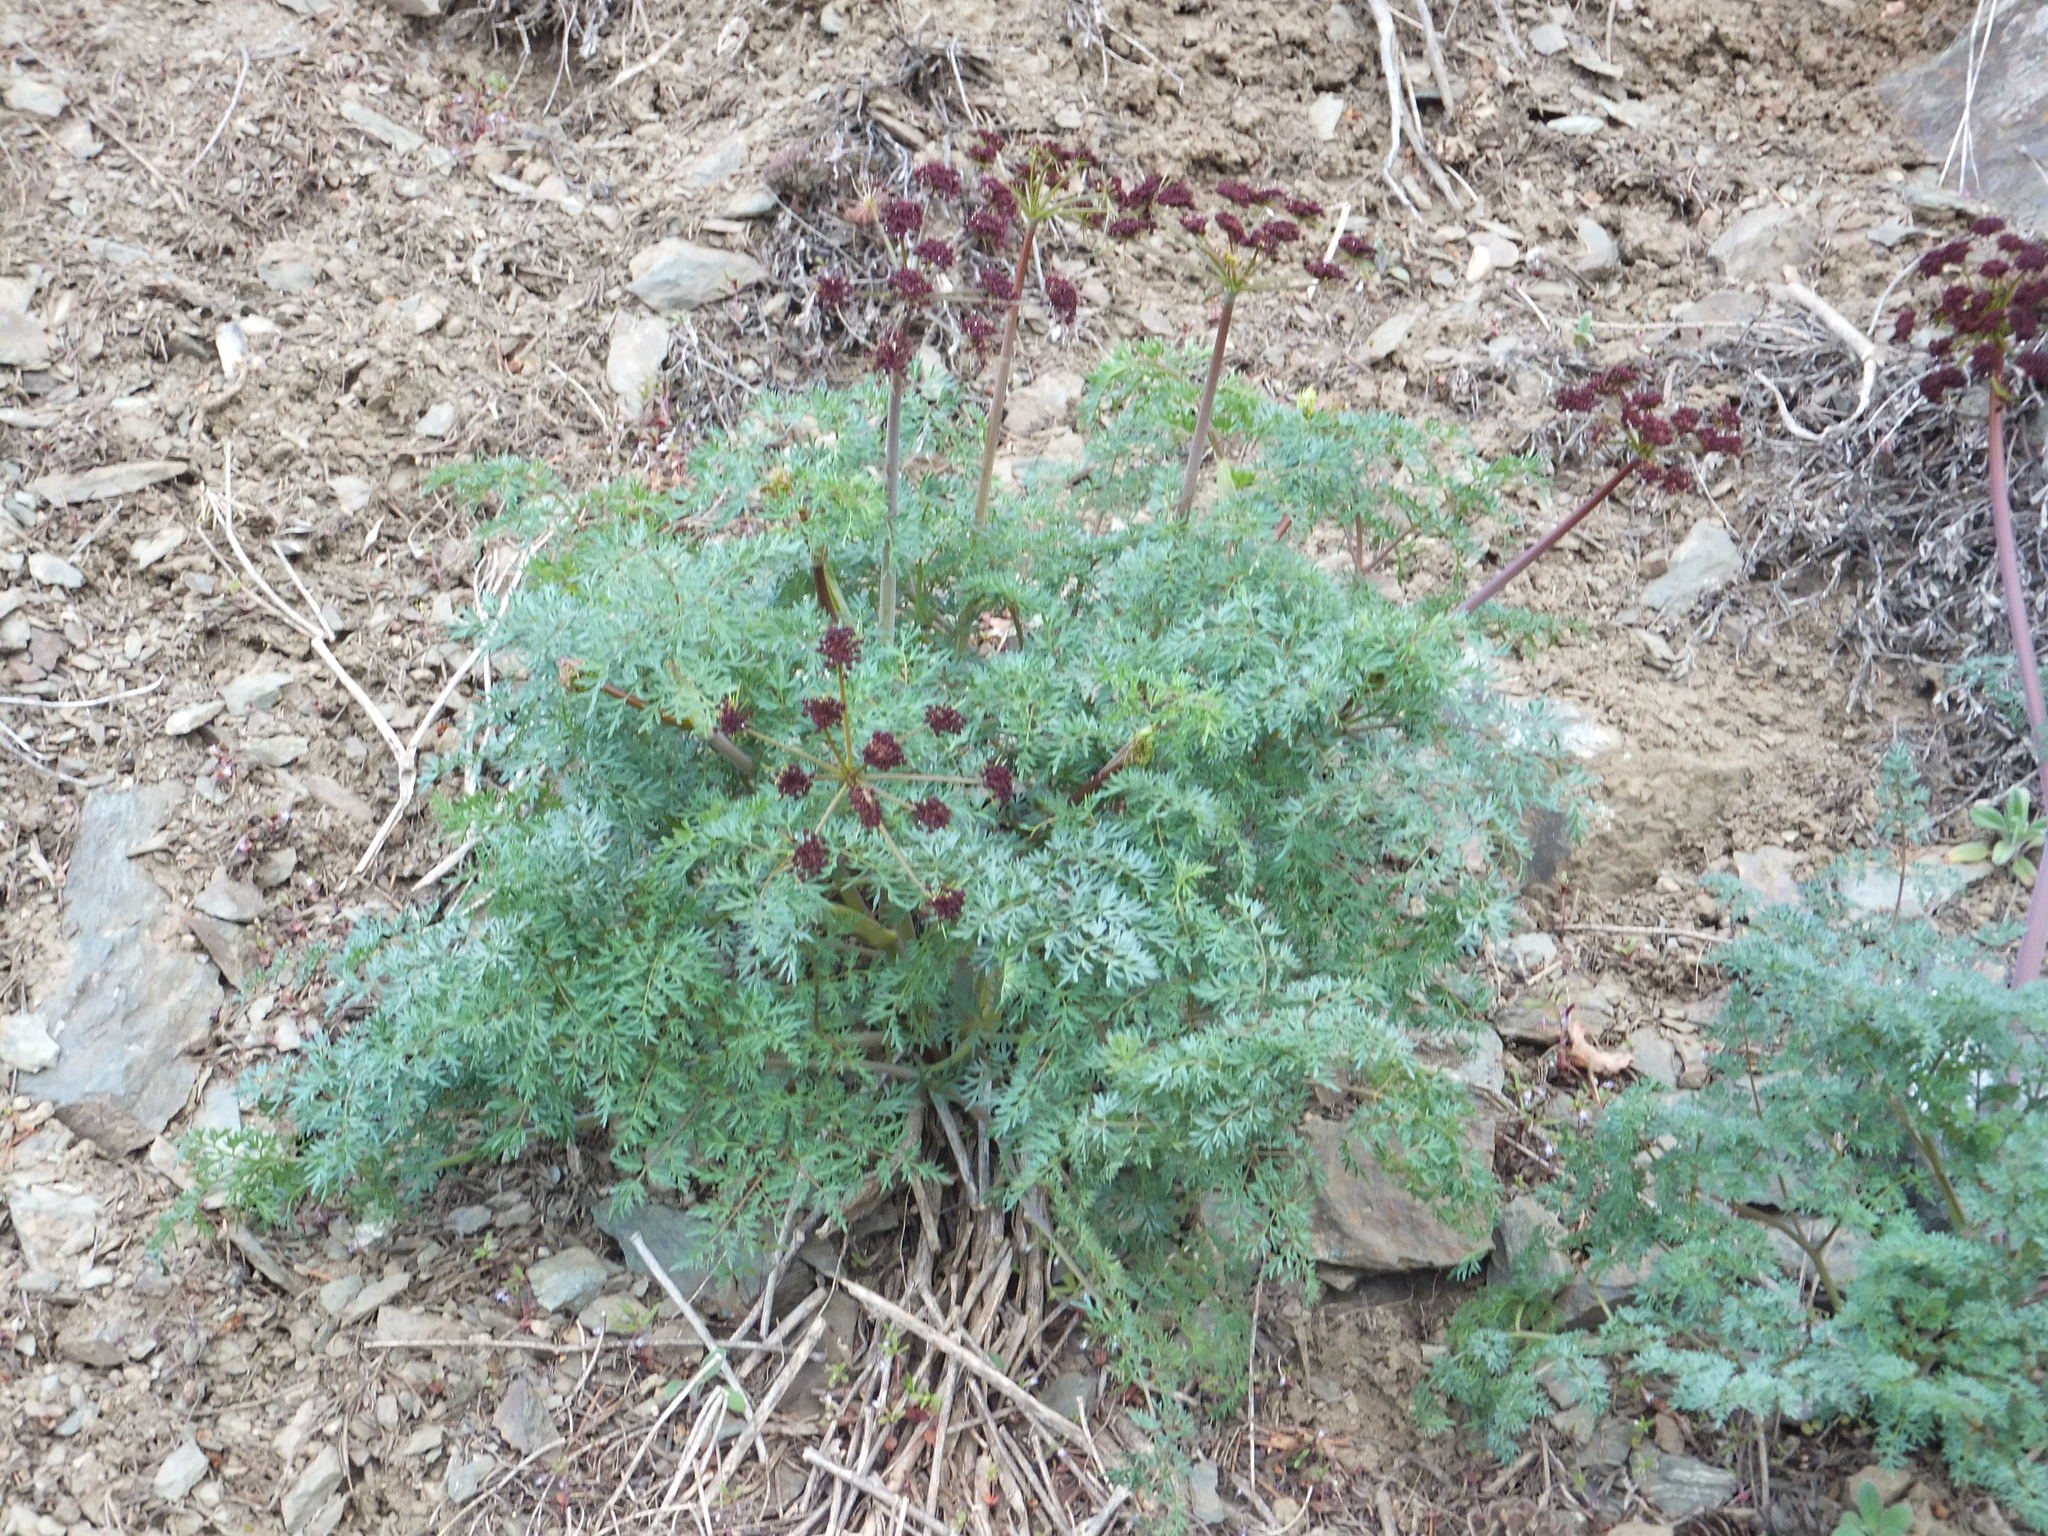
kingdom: Plantae
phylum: Tracheophyta
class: Magnoliopsida
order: Apiales
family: Apiaceae
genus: Lomatium
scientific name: Lomatium multifidum
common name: Carrot-leaved biscuitroot
